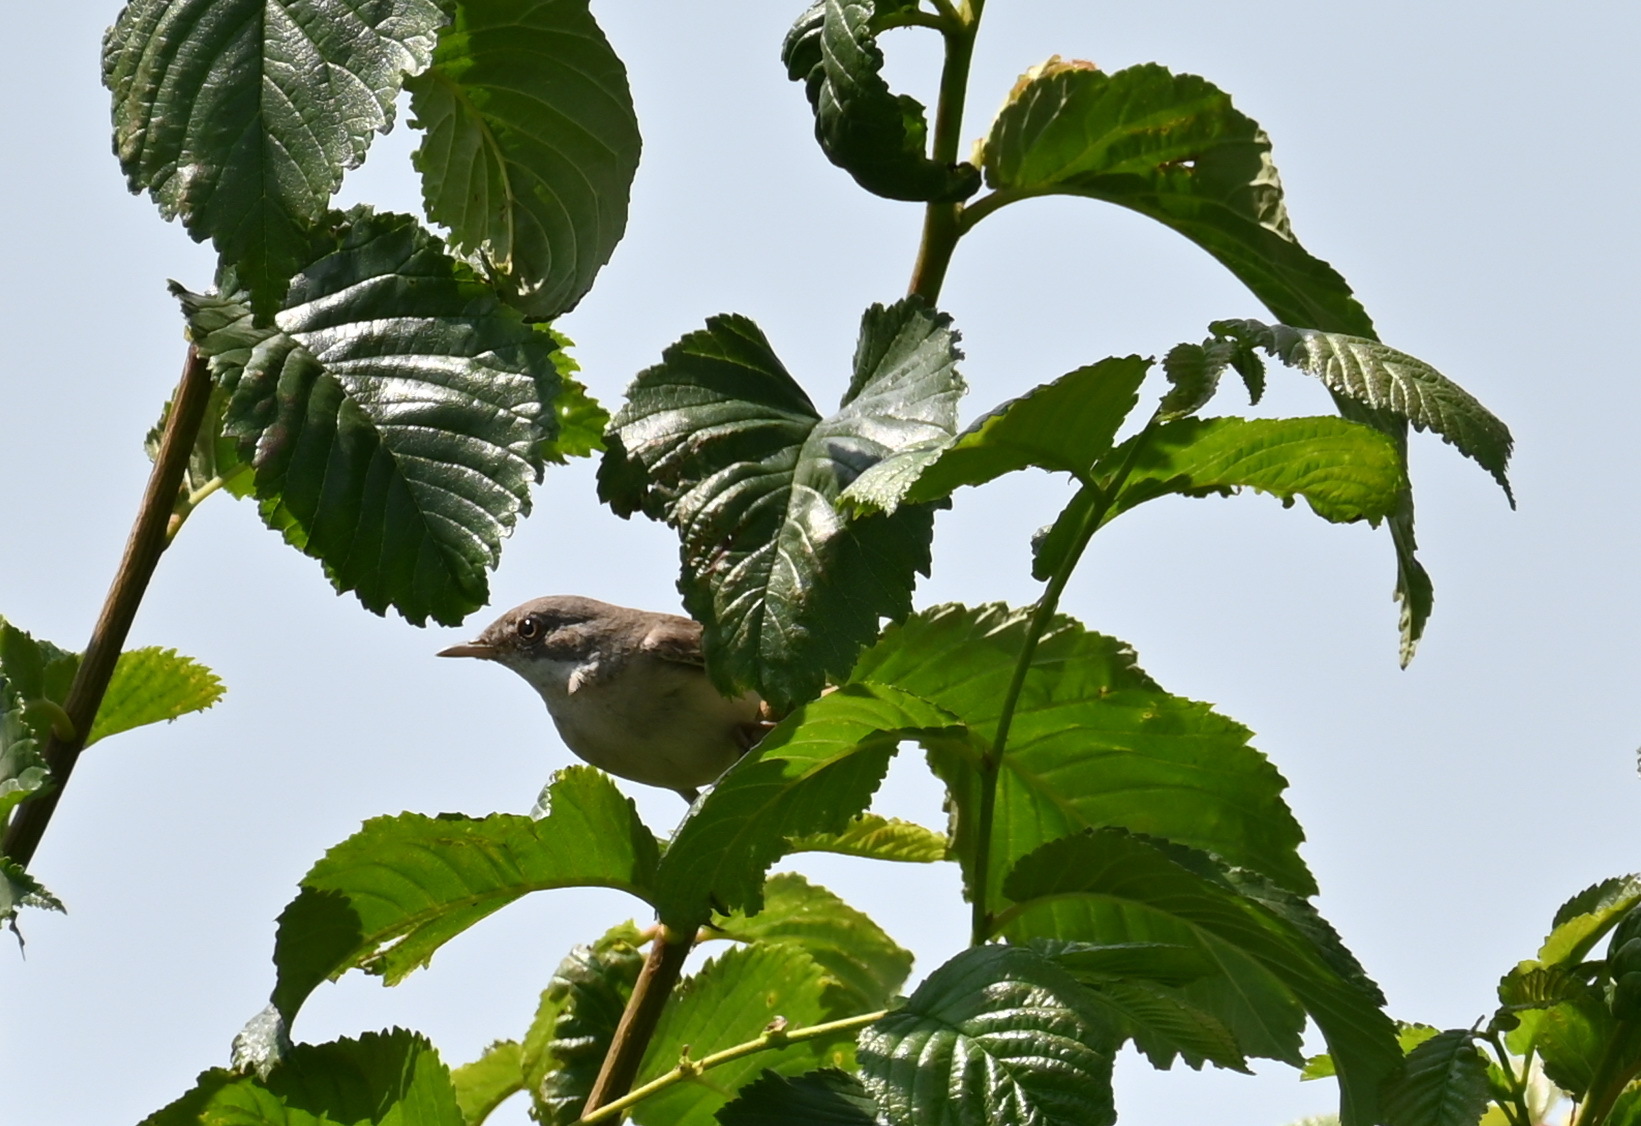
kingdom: Animalia
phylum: Chordata
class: Aves
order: Passeriformes
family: Sylviidae
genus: Sylvia
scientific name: Sylvia communis
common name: Common whitethroat
